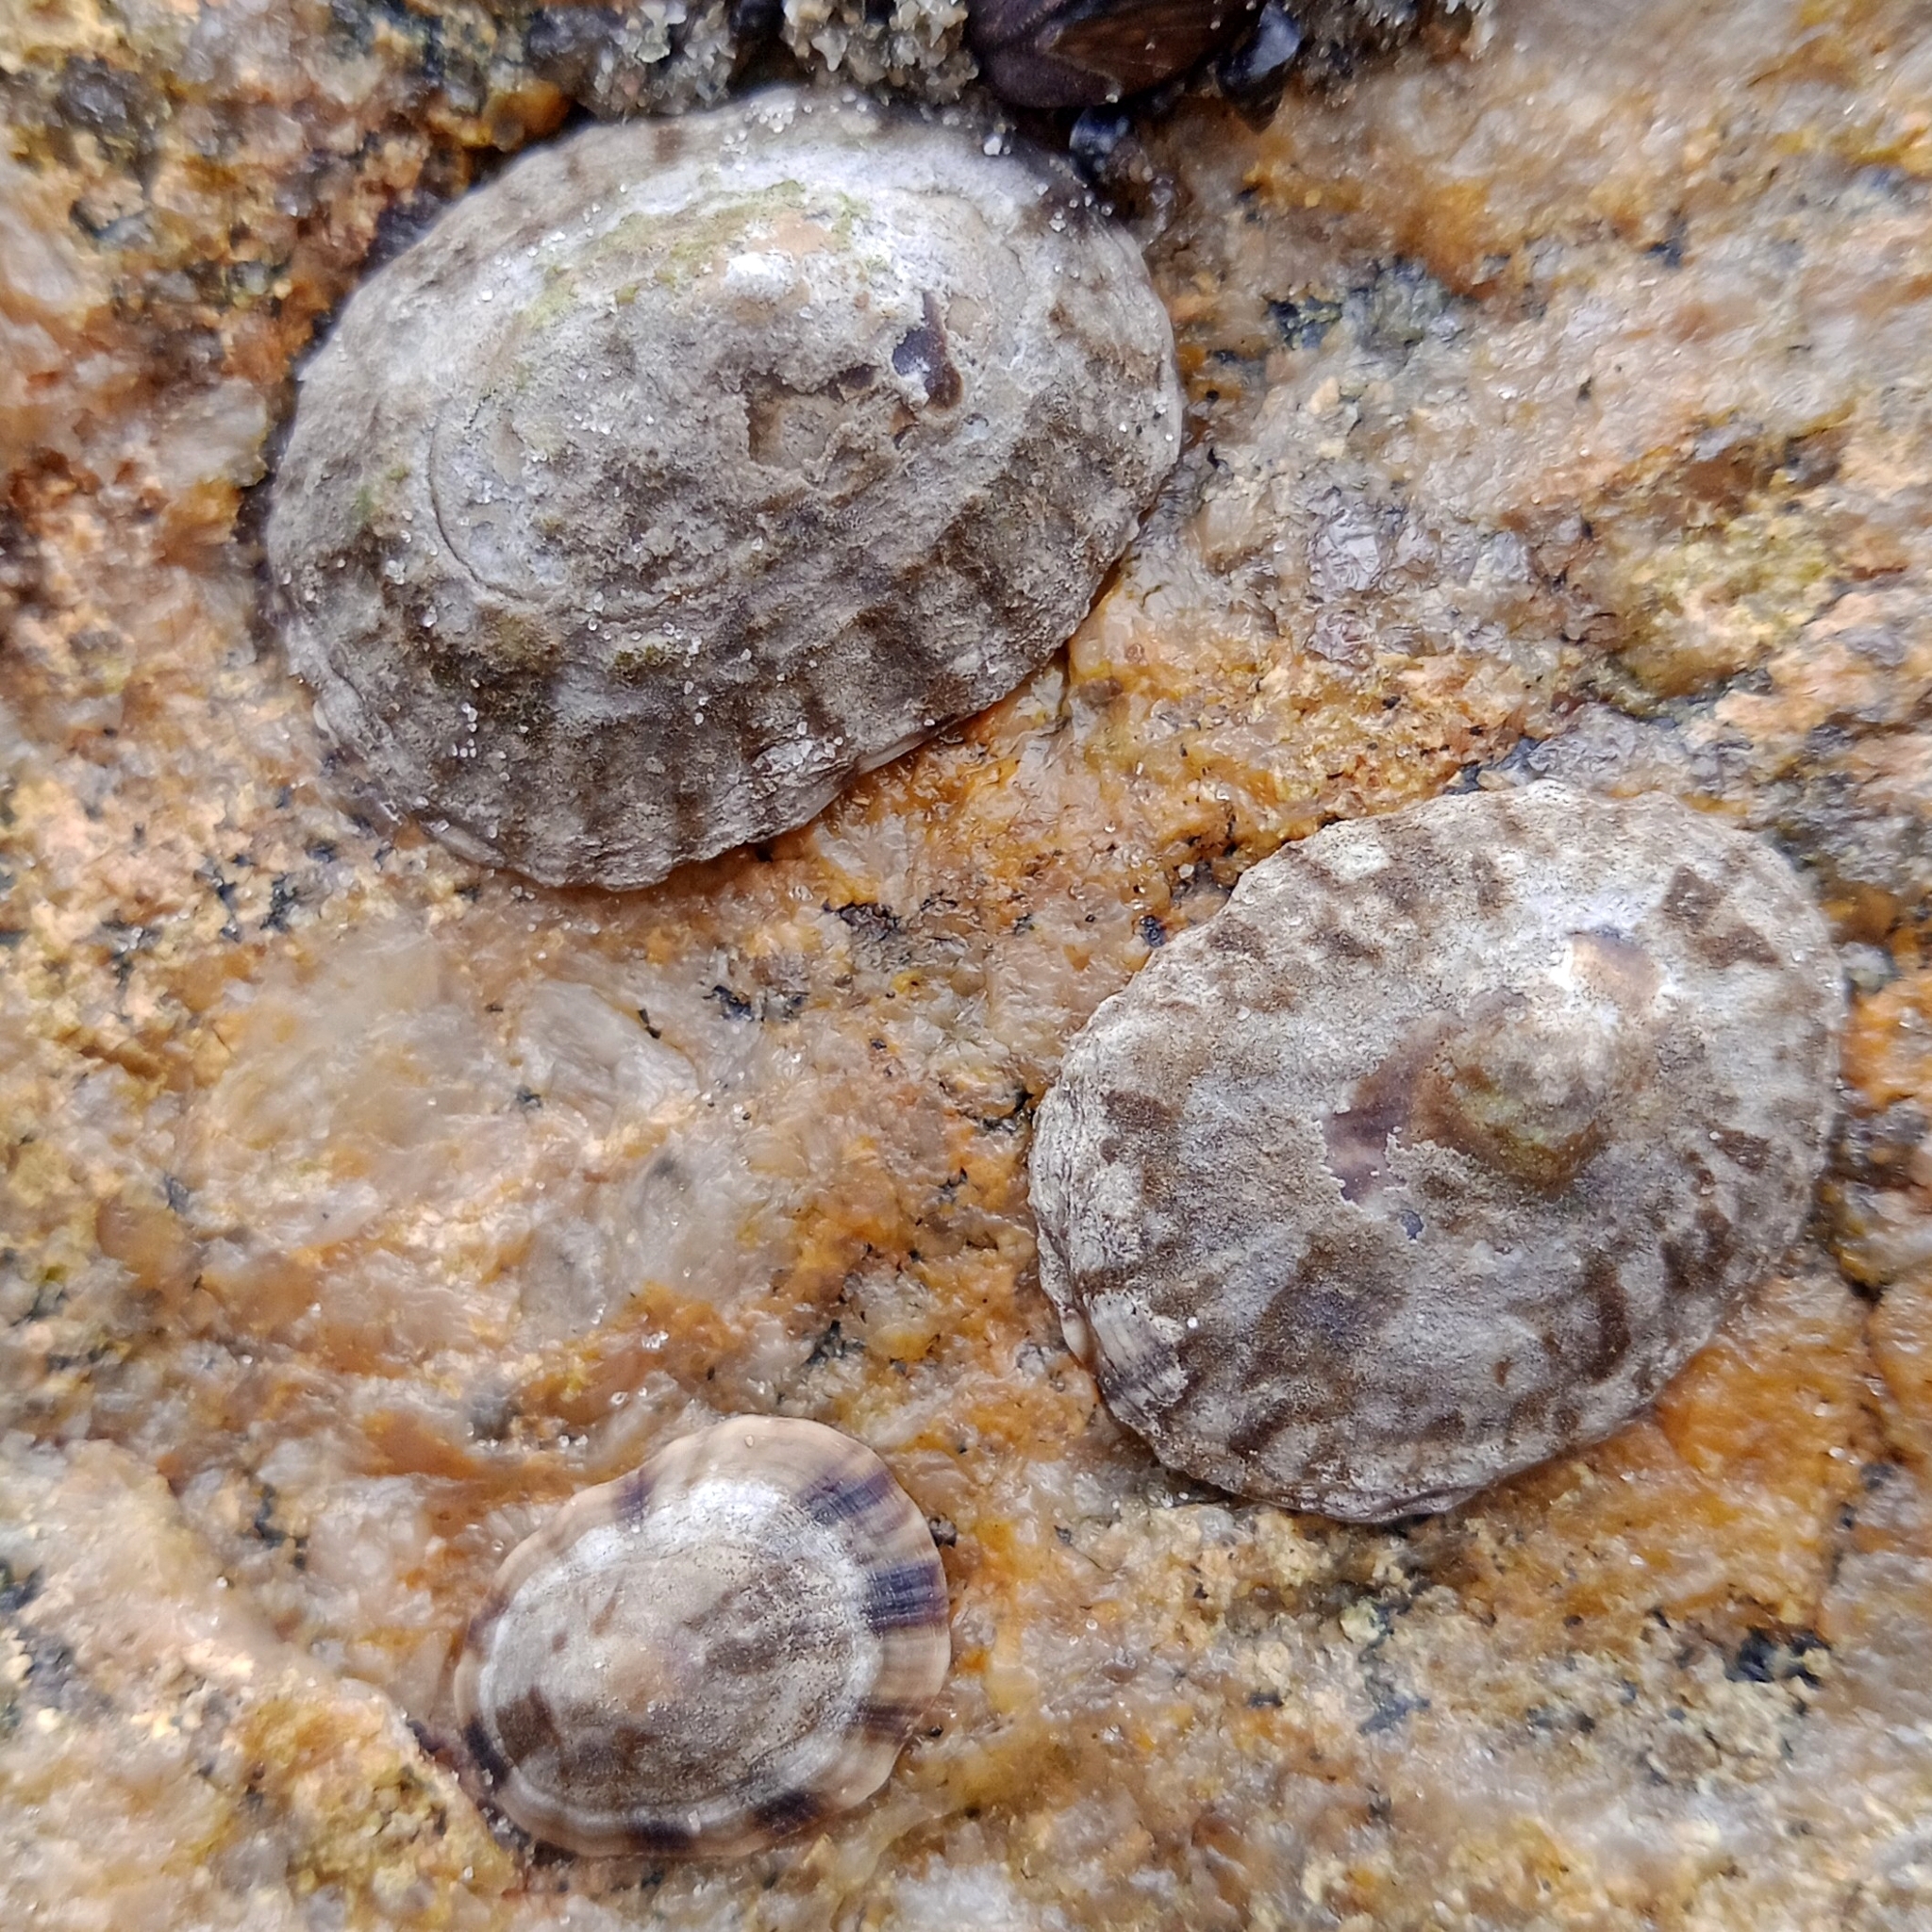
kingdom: Animalia
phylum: Mollusca
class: Gastropoda
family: Lottiidae
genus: Lottia
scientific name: Lottia subrugosa
